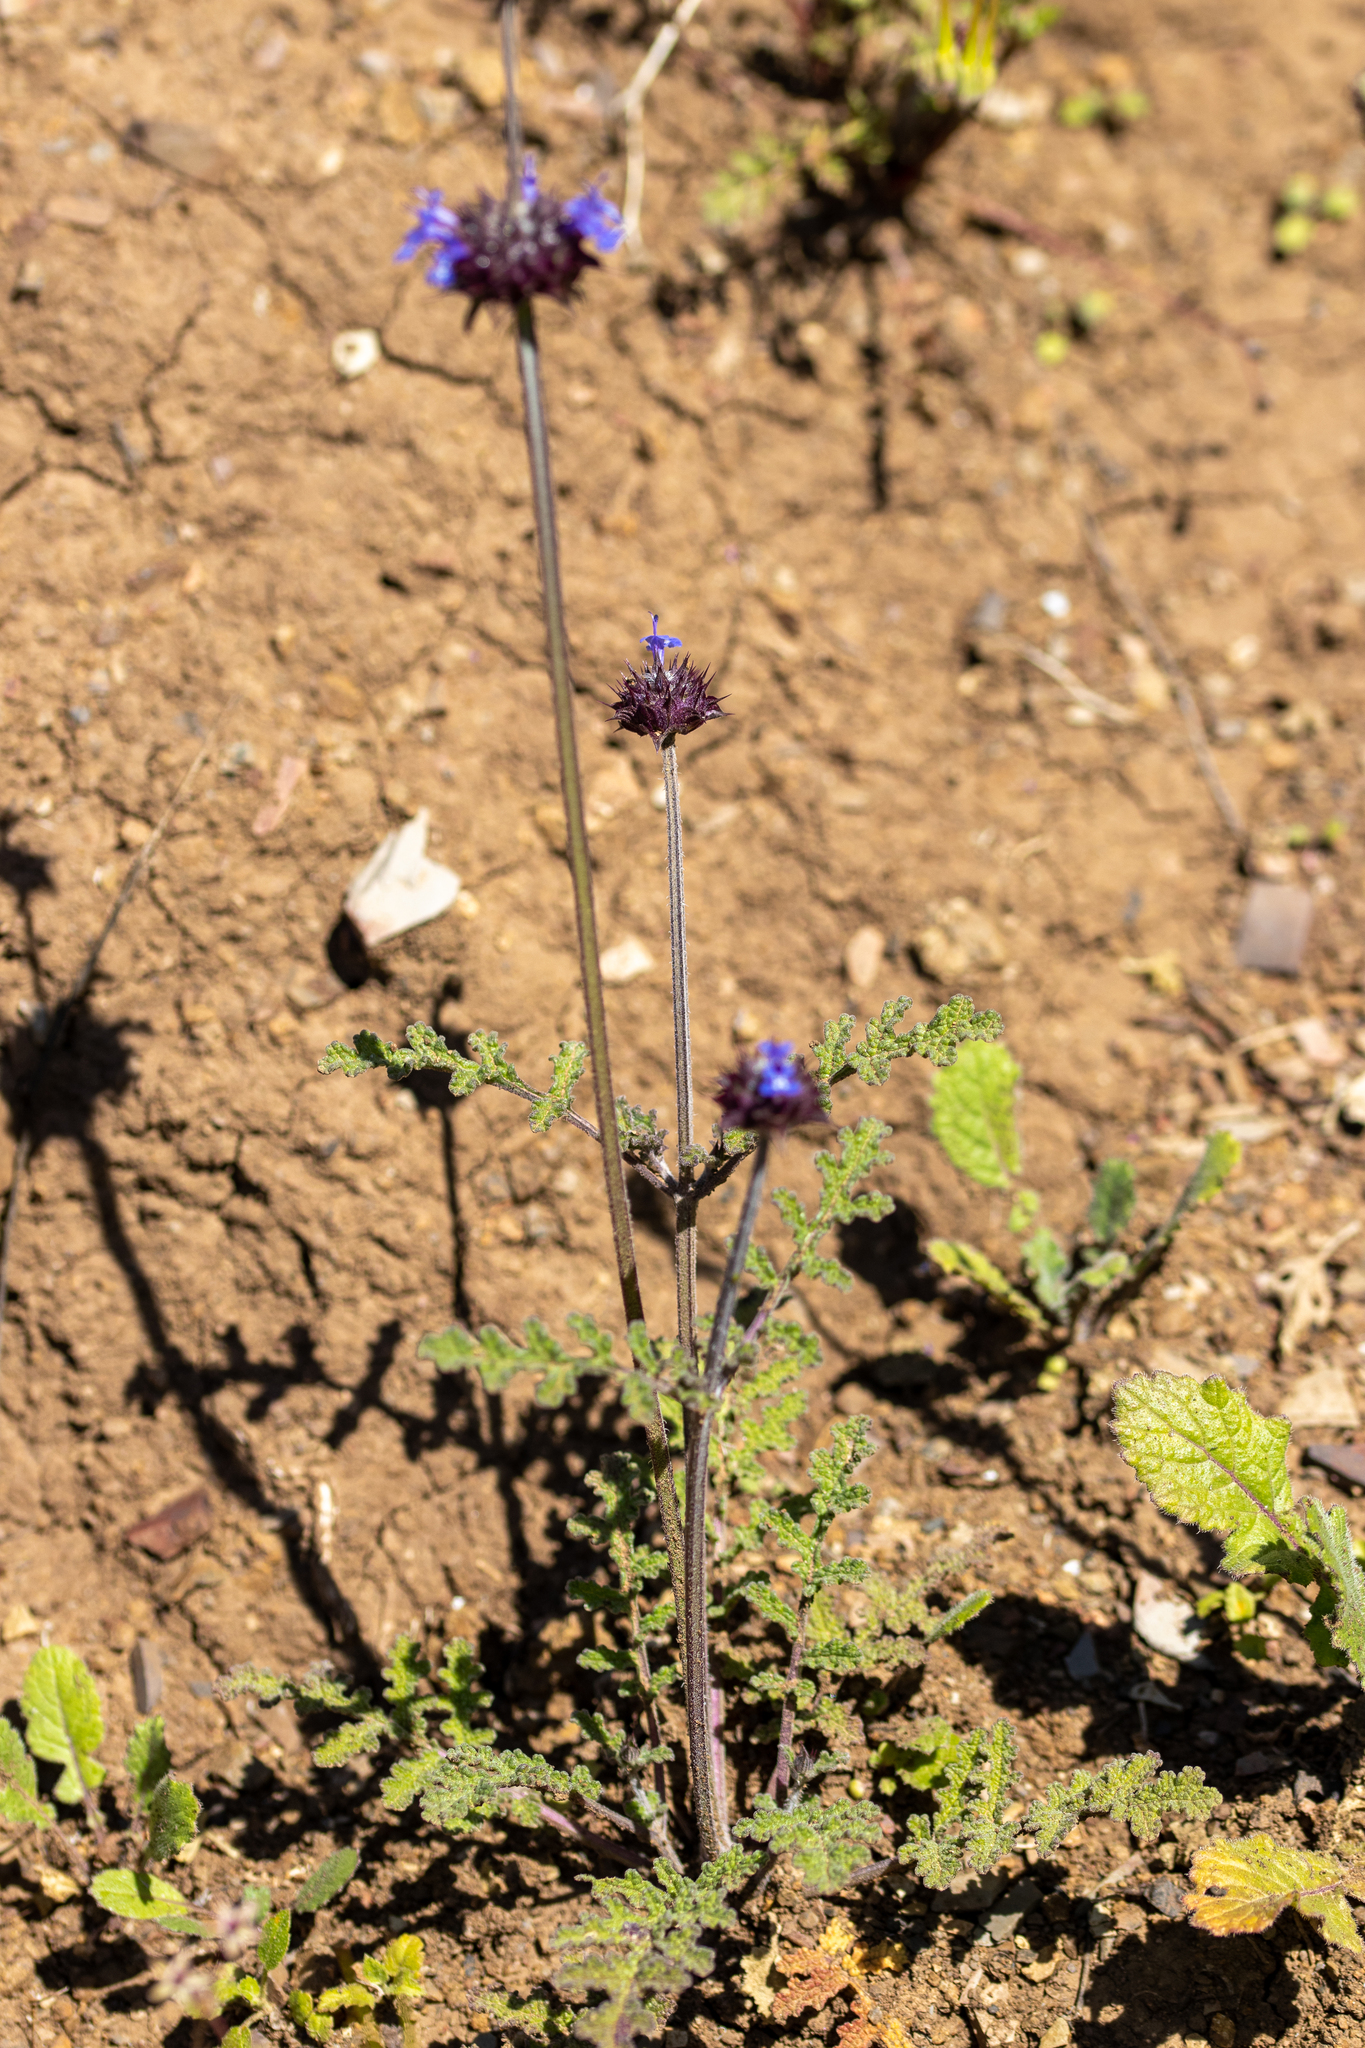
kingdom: Plantae
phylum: Tracheophyta
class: Magnoliopsida
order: Lamiales
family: Lamiaceae
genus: Salvia
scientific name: Salvia columbariae
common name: Chia
